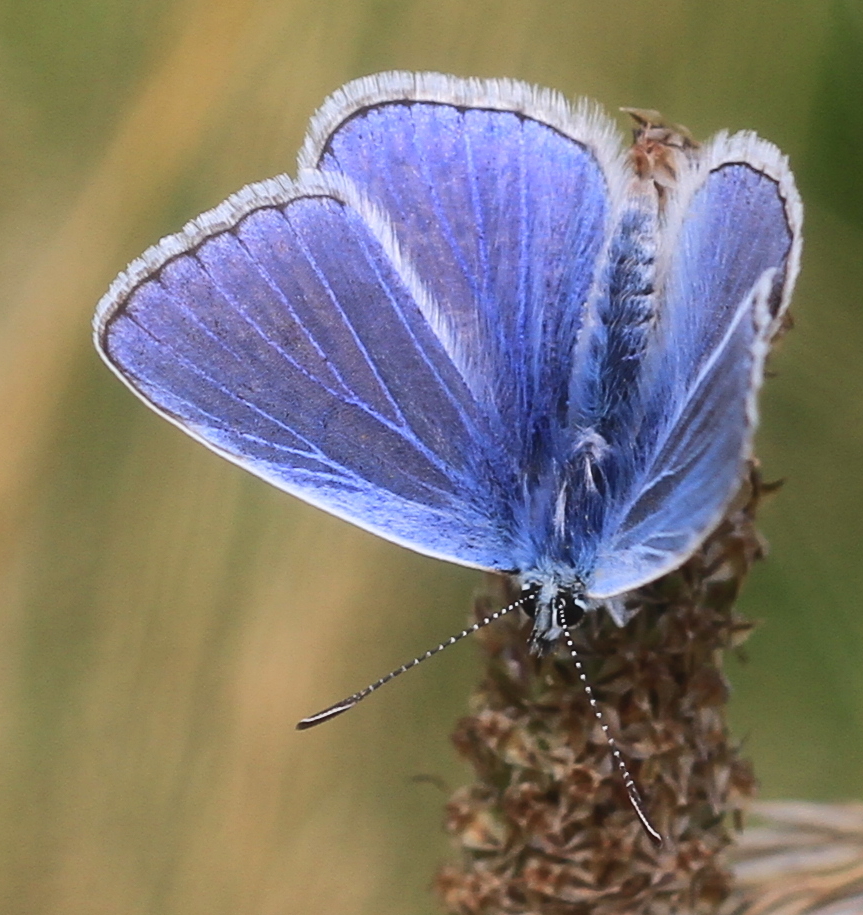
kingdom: Animalia
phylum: Arthropoda
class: Insecta
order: Lepidoptera
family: Lycaenidae
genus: Polyommatus
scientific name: Polyommatus icarus
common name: Common blue
